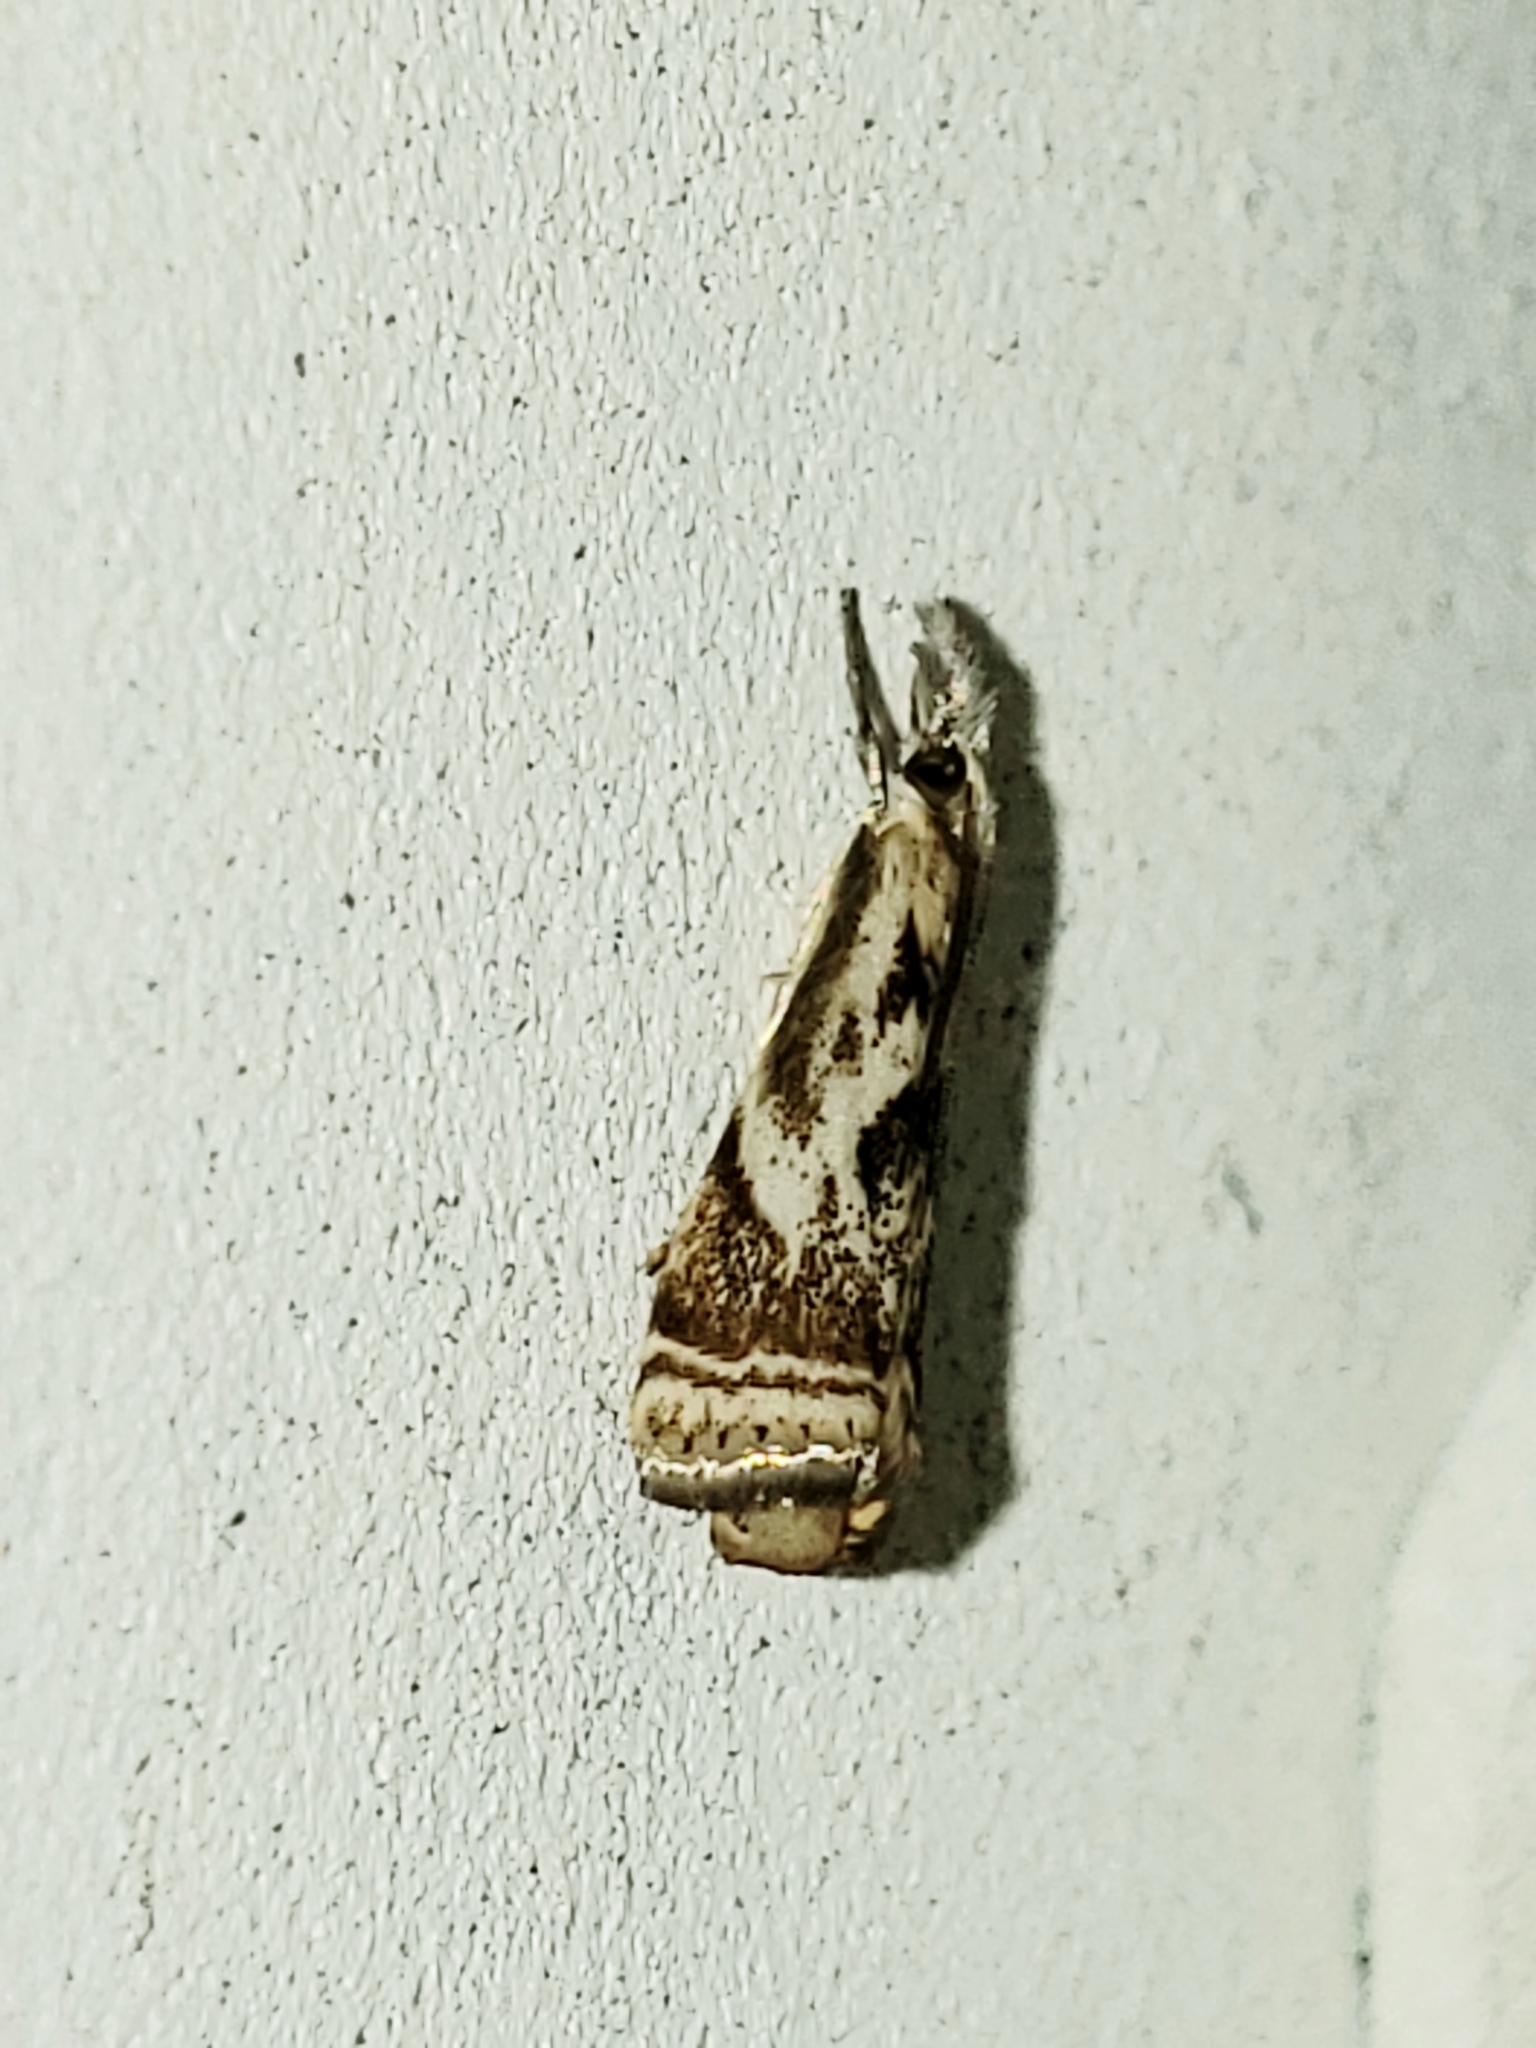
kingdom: Animalia
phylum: Arthropoda
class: Insecta
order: Lepidoptera
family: Crambidae
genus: Microcrambus
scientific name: Microcrambus elegans
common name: Elegant grass-veneer
